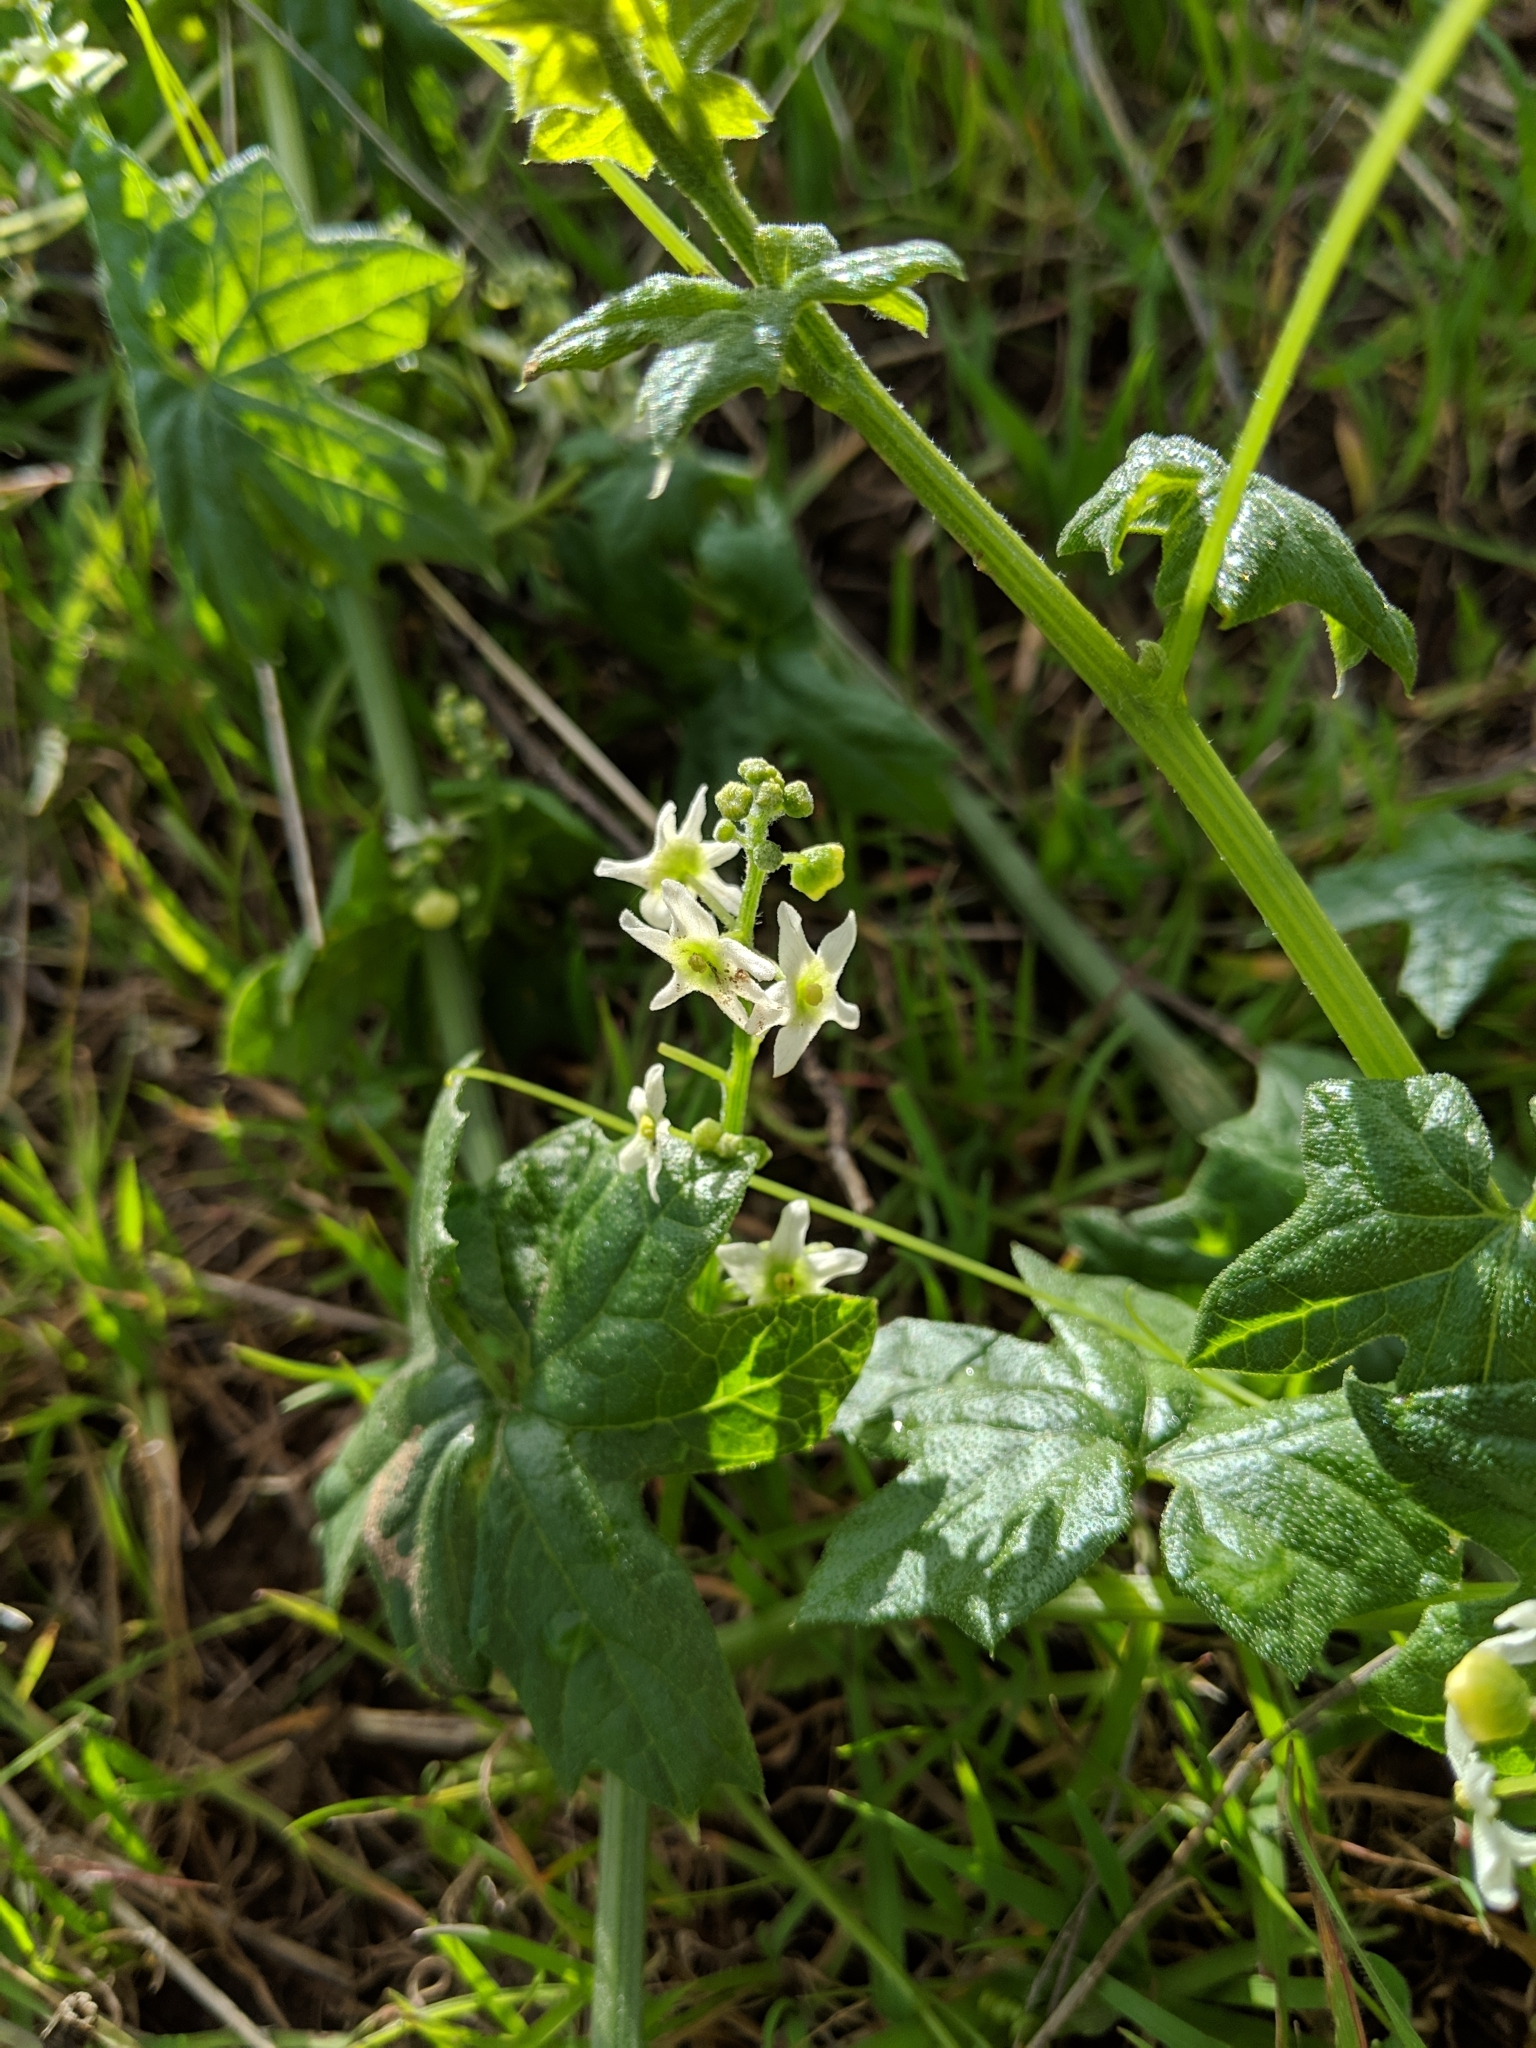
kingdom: Plantae
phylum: Tracheophyta
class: Magnoliopsida
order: Cucurbitales
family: Cucurbitaceae
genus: Marah
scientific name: Marah fabacea
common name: California manroot
